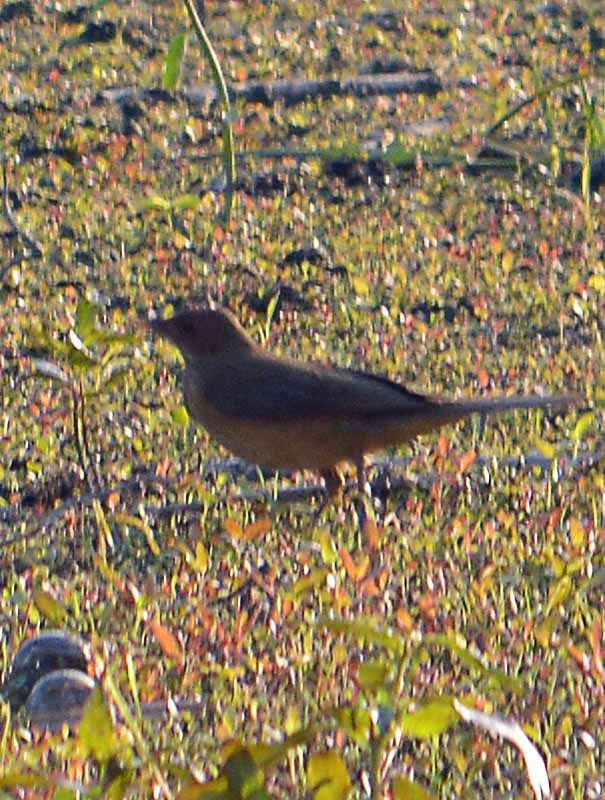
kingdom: Animalia
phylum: Chordata
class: Aves
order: Passeriformes
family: Turdidae
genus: Turdus
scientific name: Turdus grayi
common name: Clay-colored thrush
